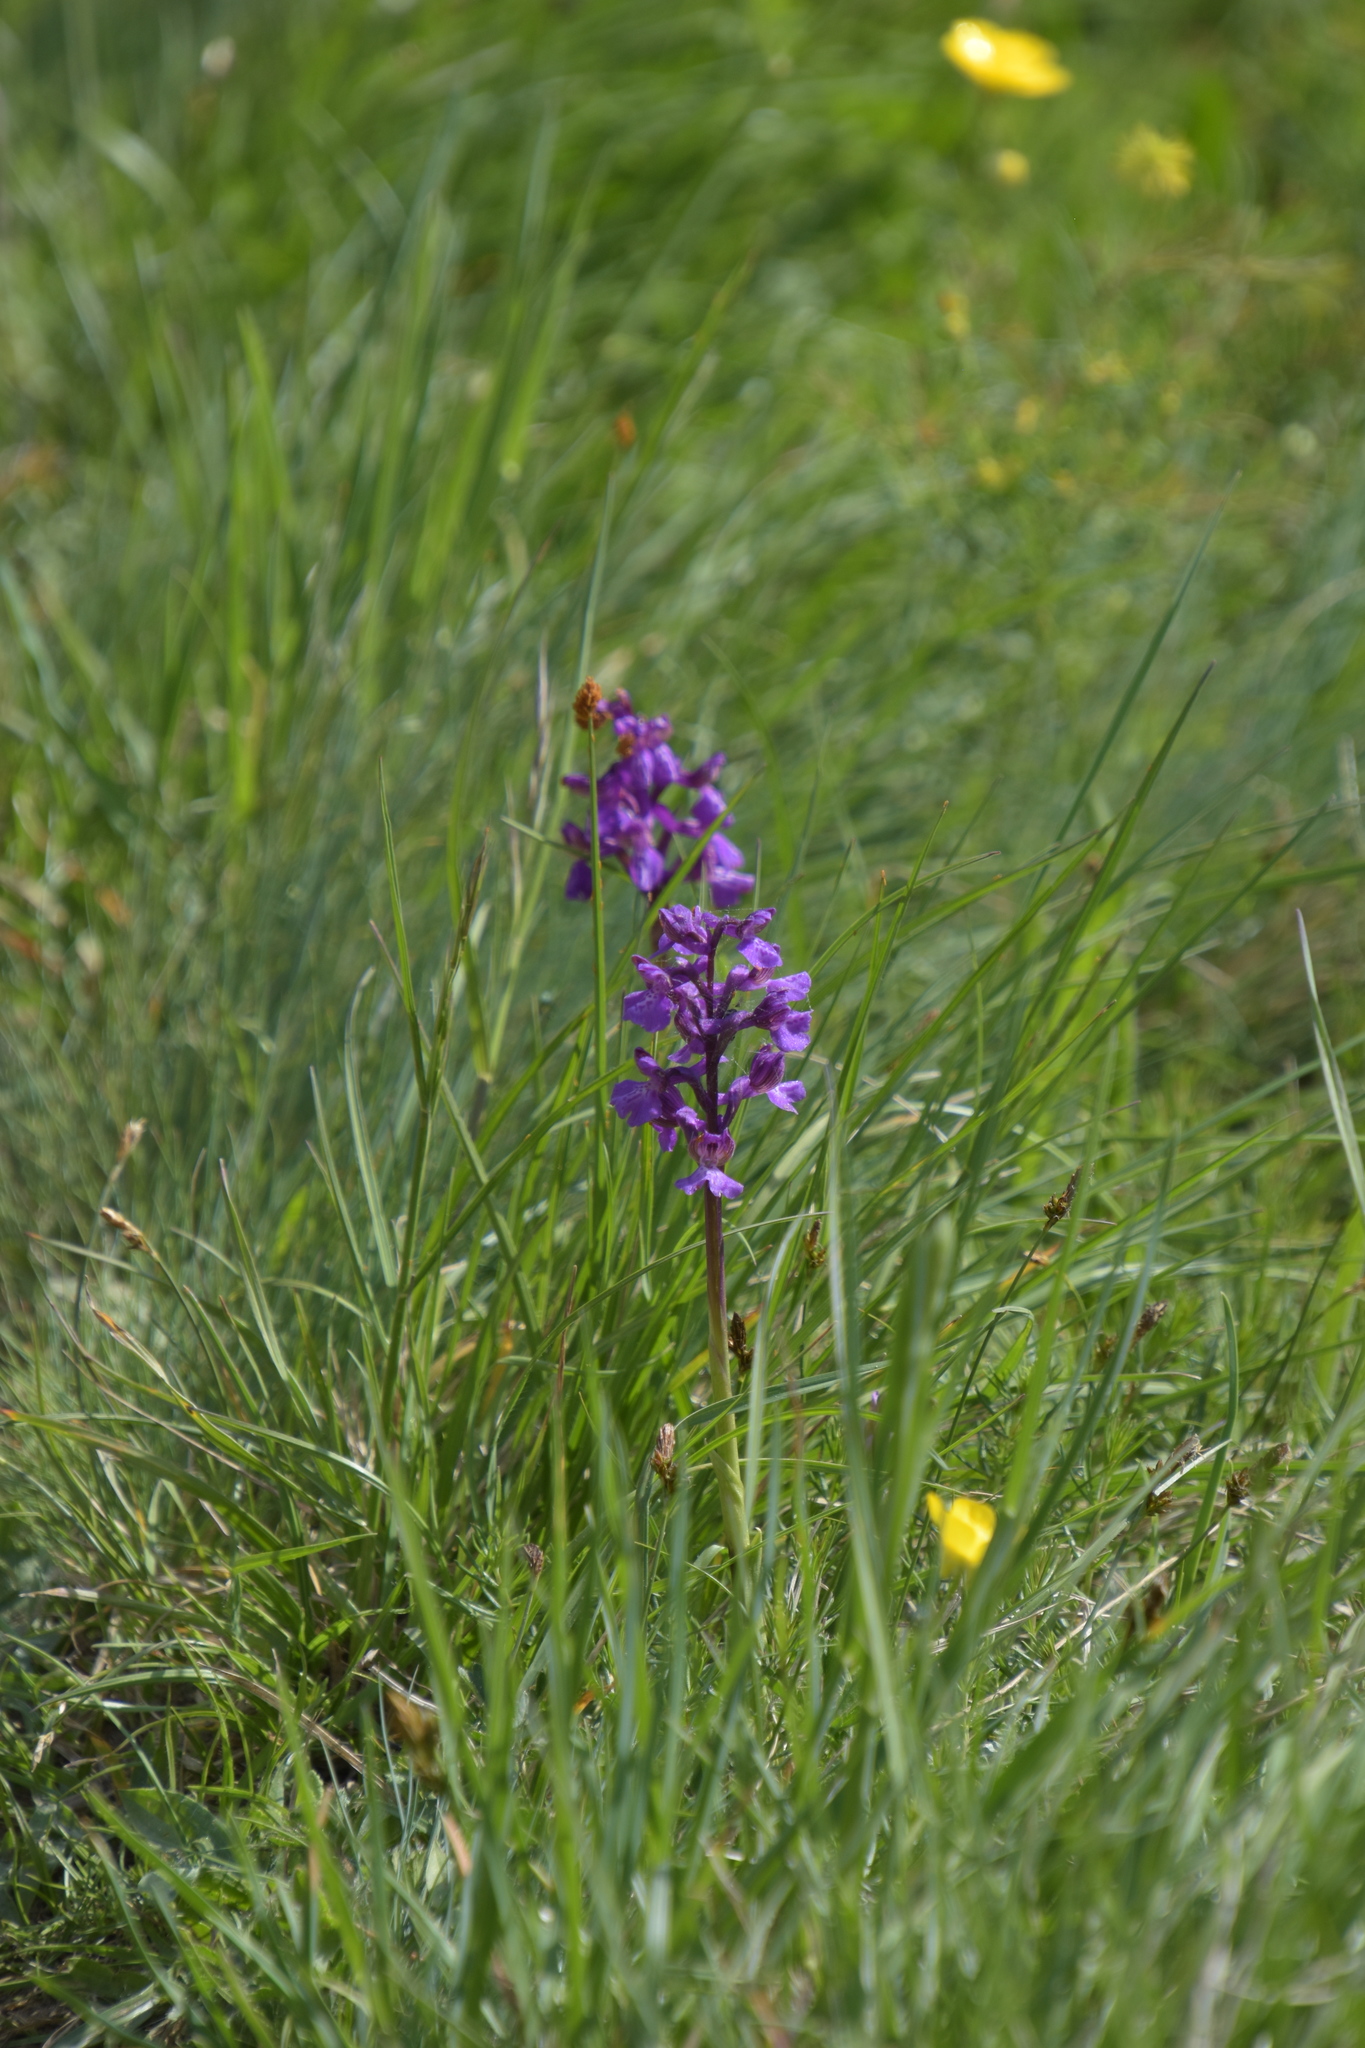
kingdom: Plantae
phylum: Tracheophyta
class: Liliopsida
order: Asparagales
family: Orchidaceae
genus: Anacamptis
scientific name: Anacamptis morio
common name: Green-winged orchid
